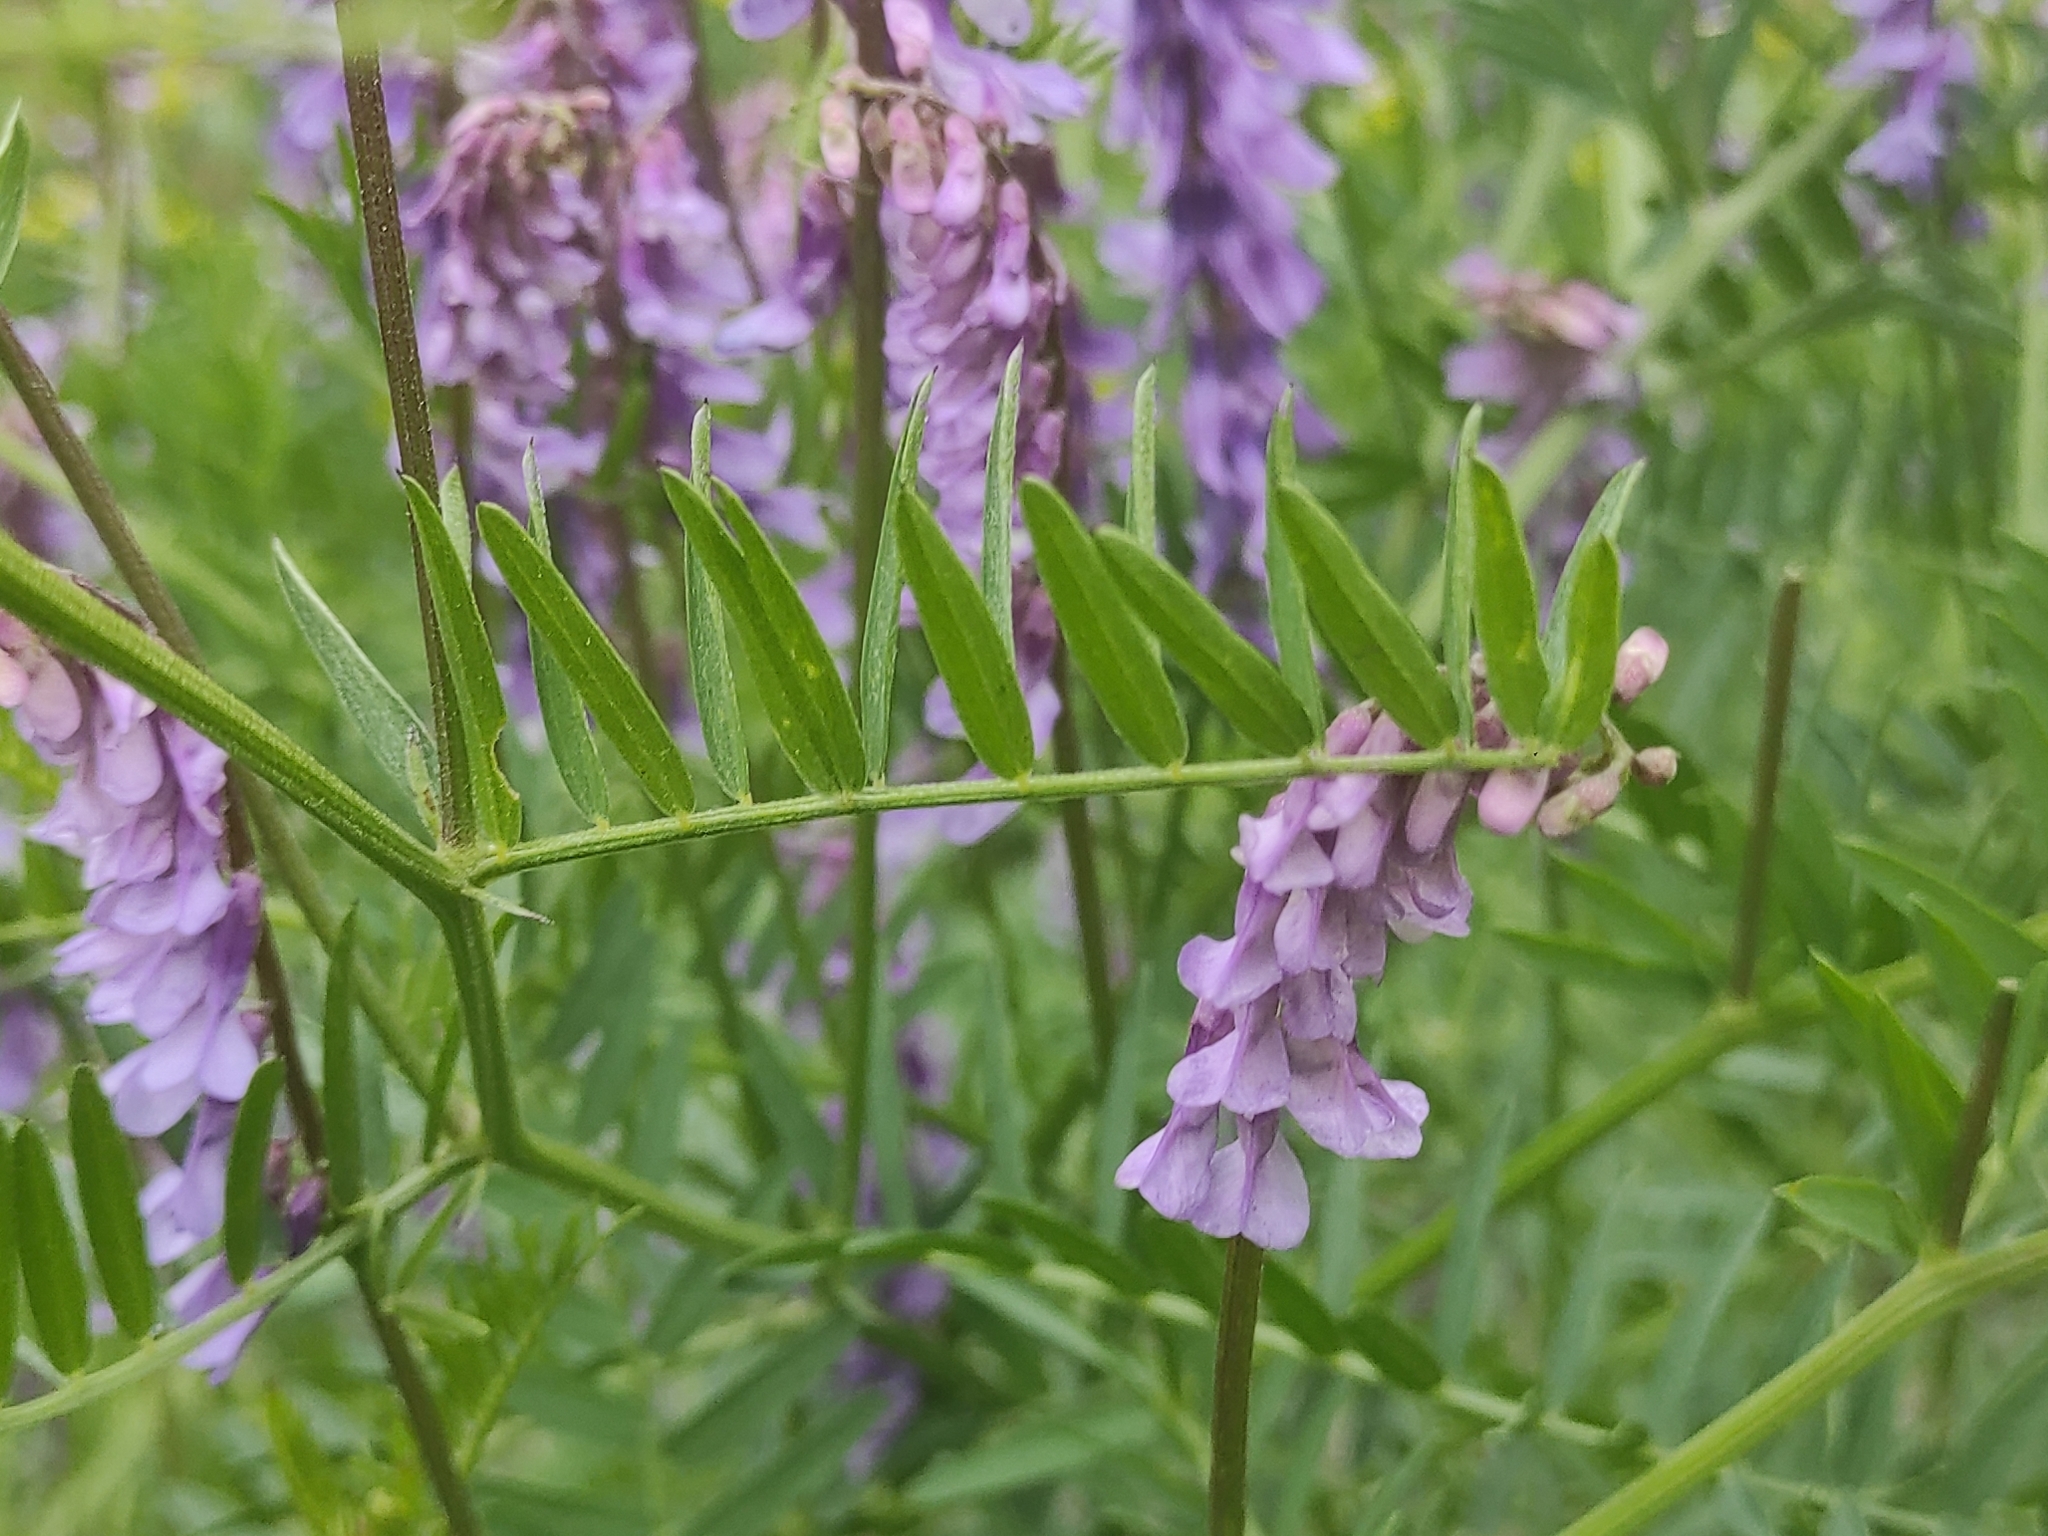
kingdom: Plantae
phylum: Tracheophyta
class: Magnoliopsida
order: Fabales
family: Fabaceae
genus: Vicia
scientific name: Vicia tenuifolia
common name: Fine-leaved vetch
